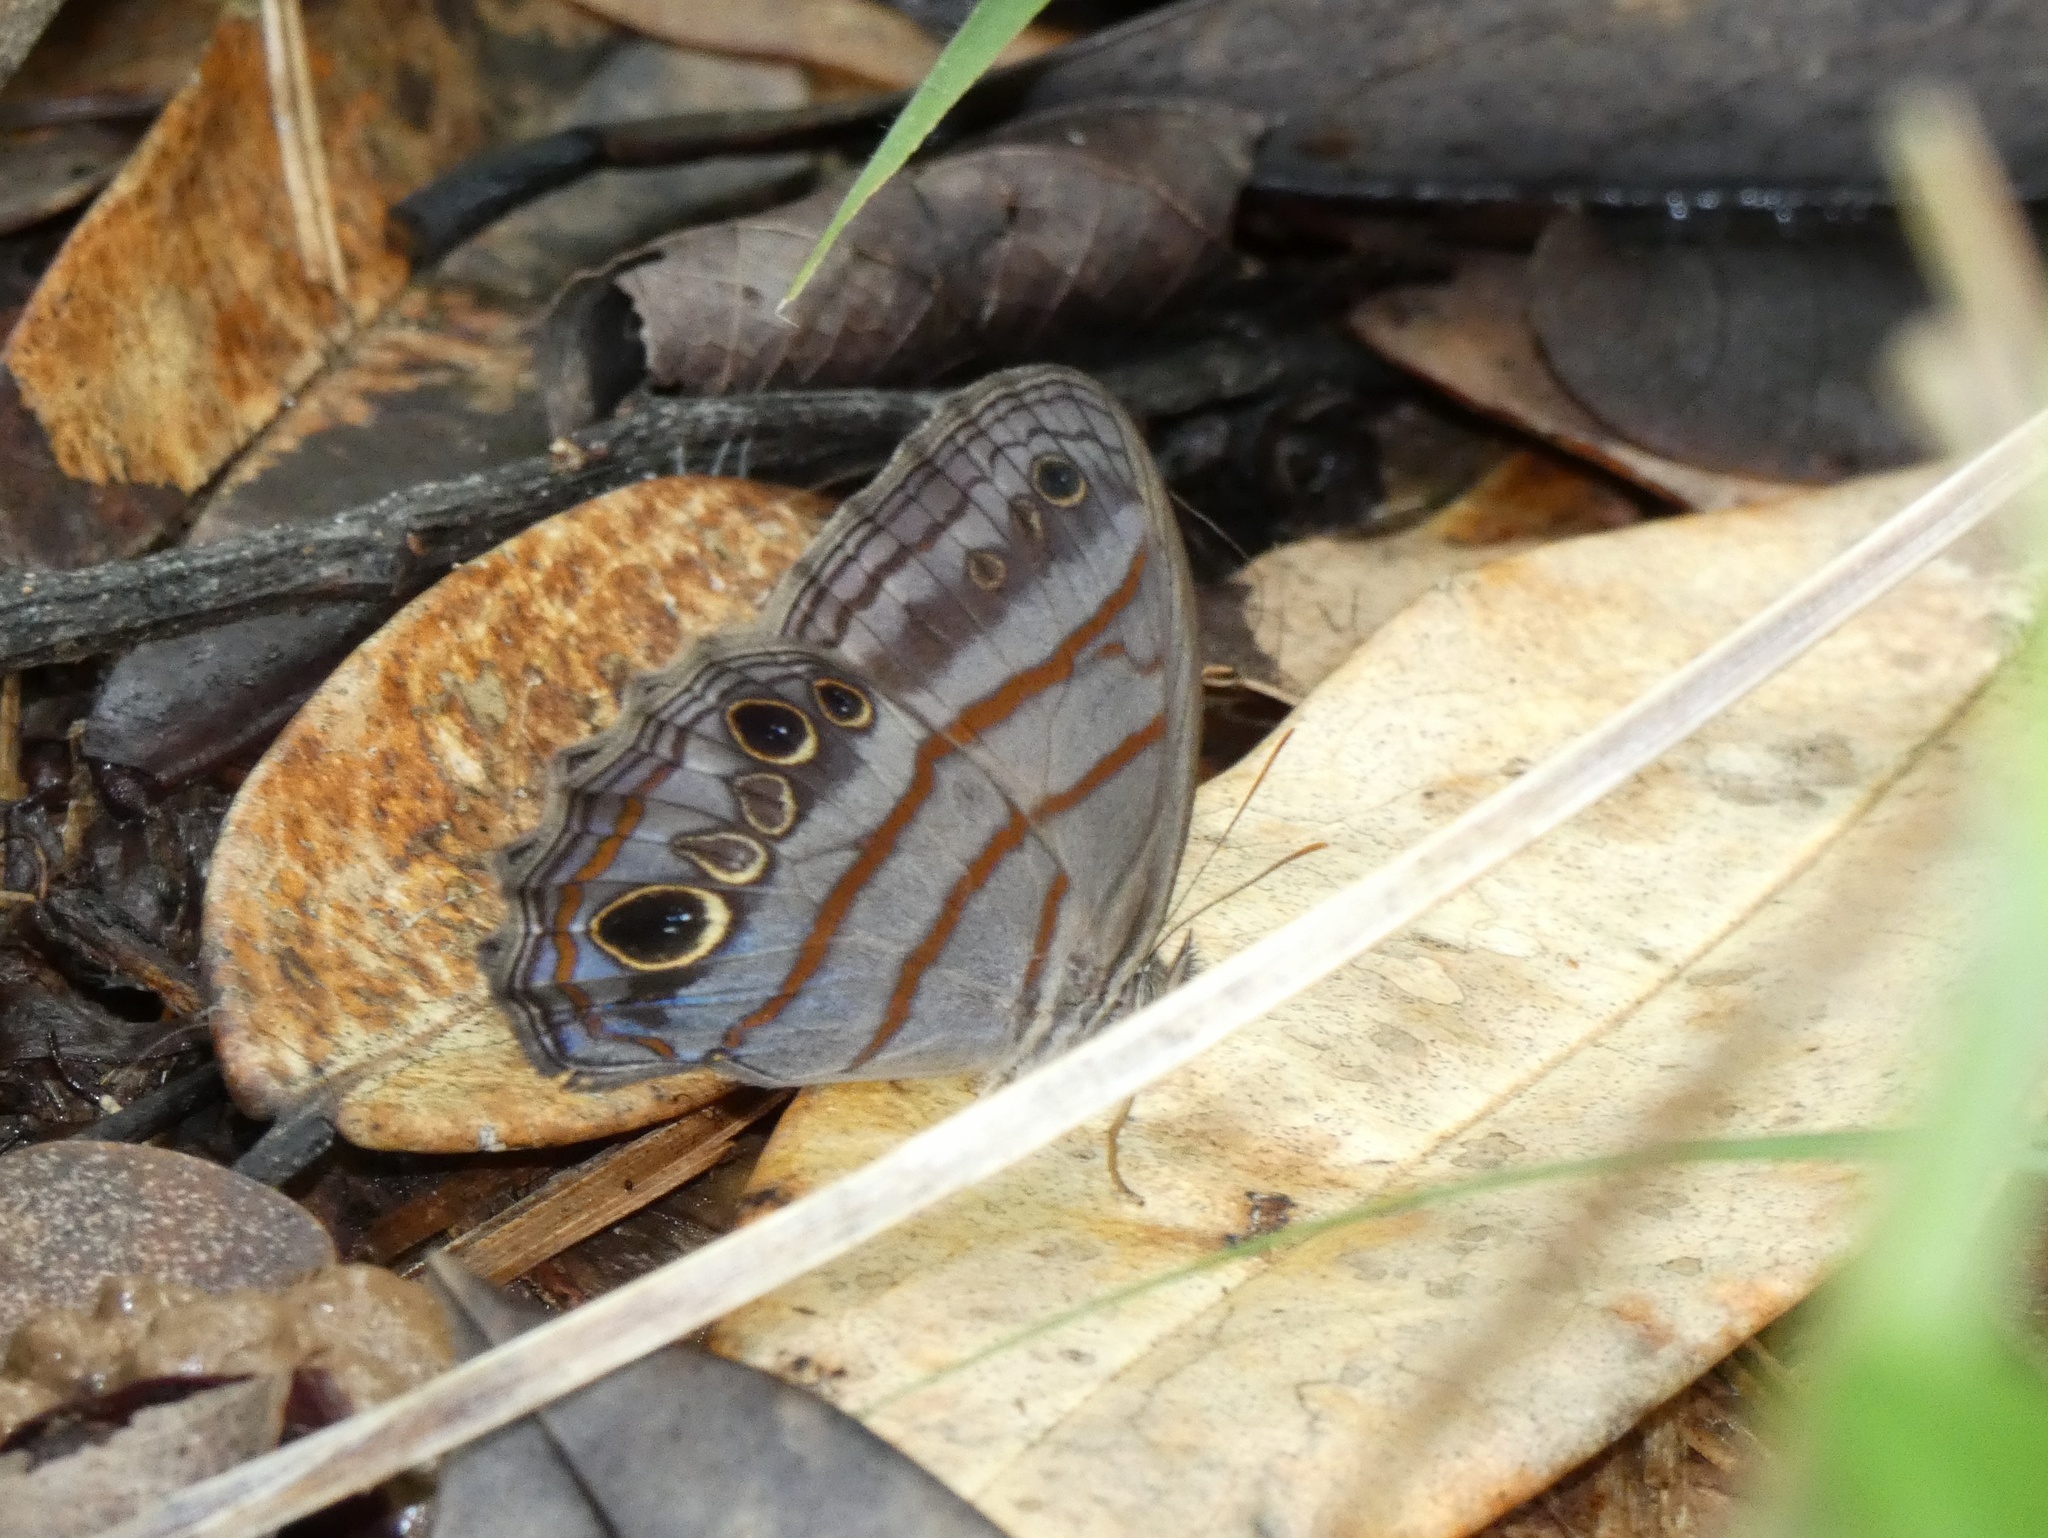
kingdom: Animalia
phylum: Arthropoda
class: Insecta
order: Lepidoptera
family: Nymphalidae
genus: Magneuptychia
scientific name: Magneuptychia libye
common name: Blue-gray satyr
